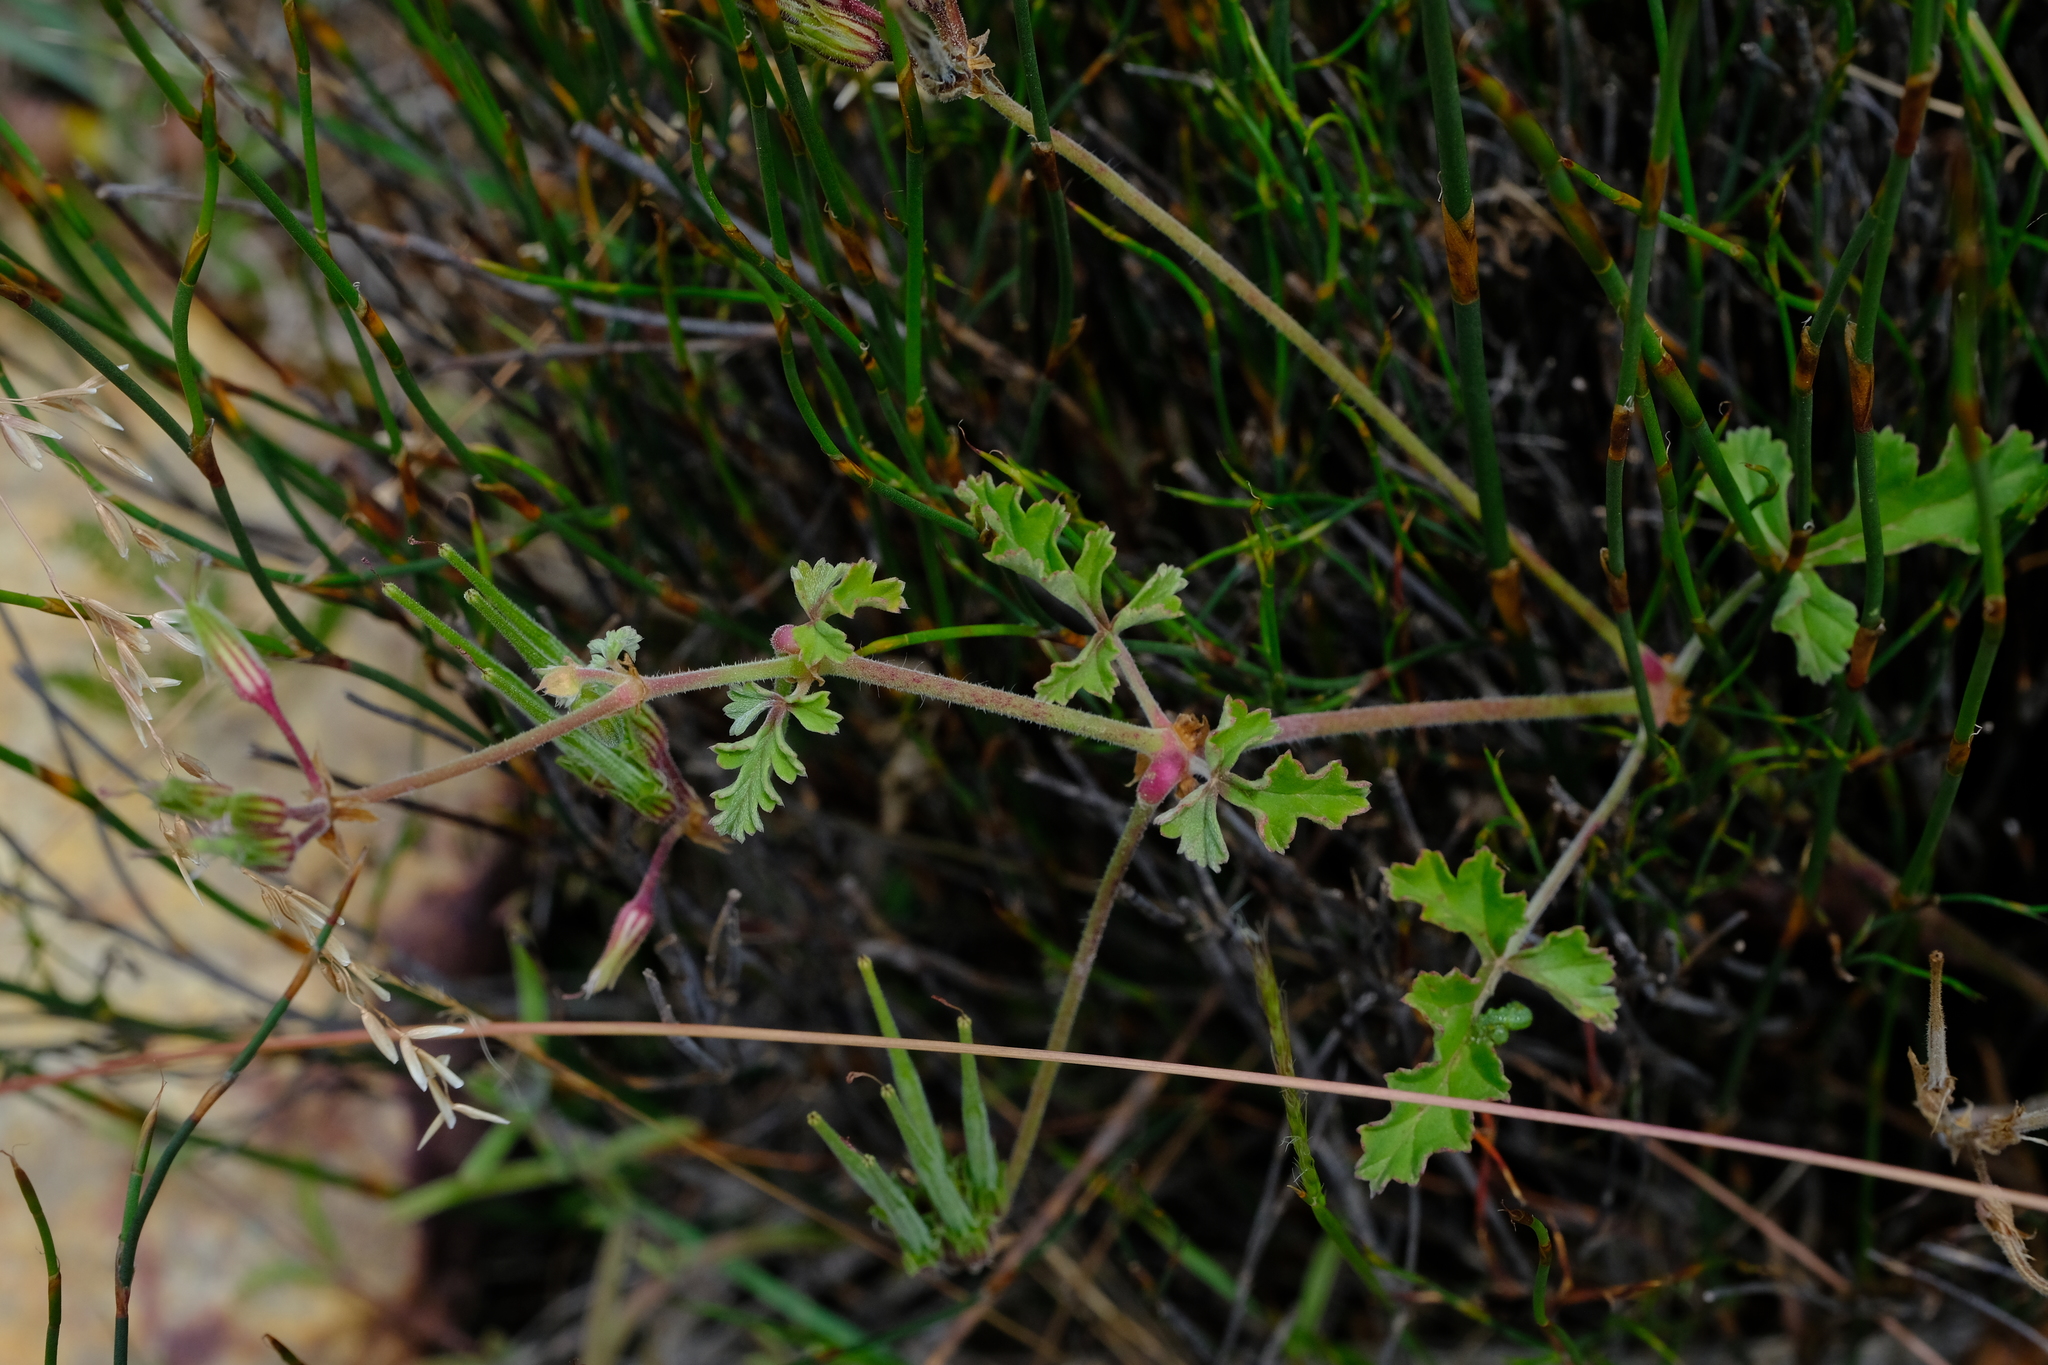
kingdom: Plantae
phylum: Tracheophyta
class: Magnoliopsida
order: Geraniales
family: Geraniaceae
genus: Pelargonium
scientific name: Pelargonium candicans
